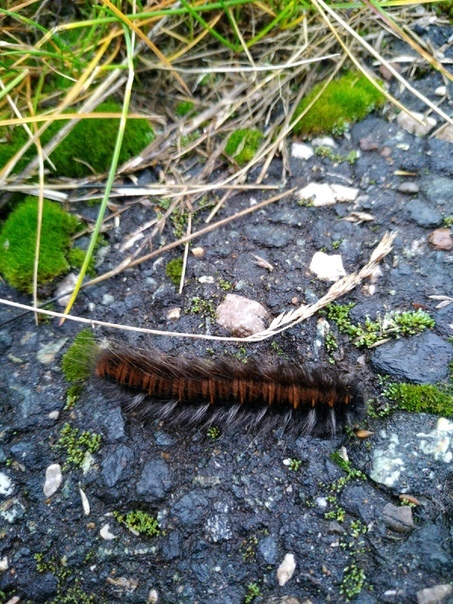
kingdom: Animalia
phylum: Arthropoda
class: Insecta
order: Lepidoptera
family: Lasiocampidae
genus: Macrothylacia
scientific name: Macrothylacia rubi
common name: Fox moth
